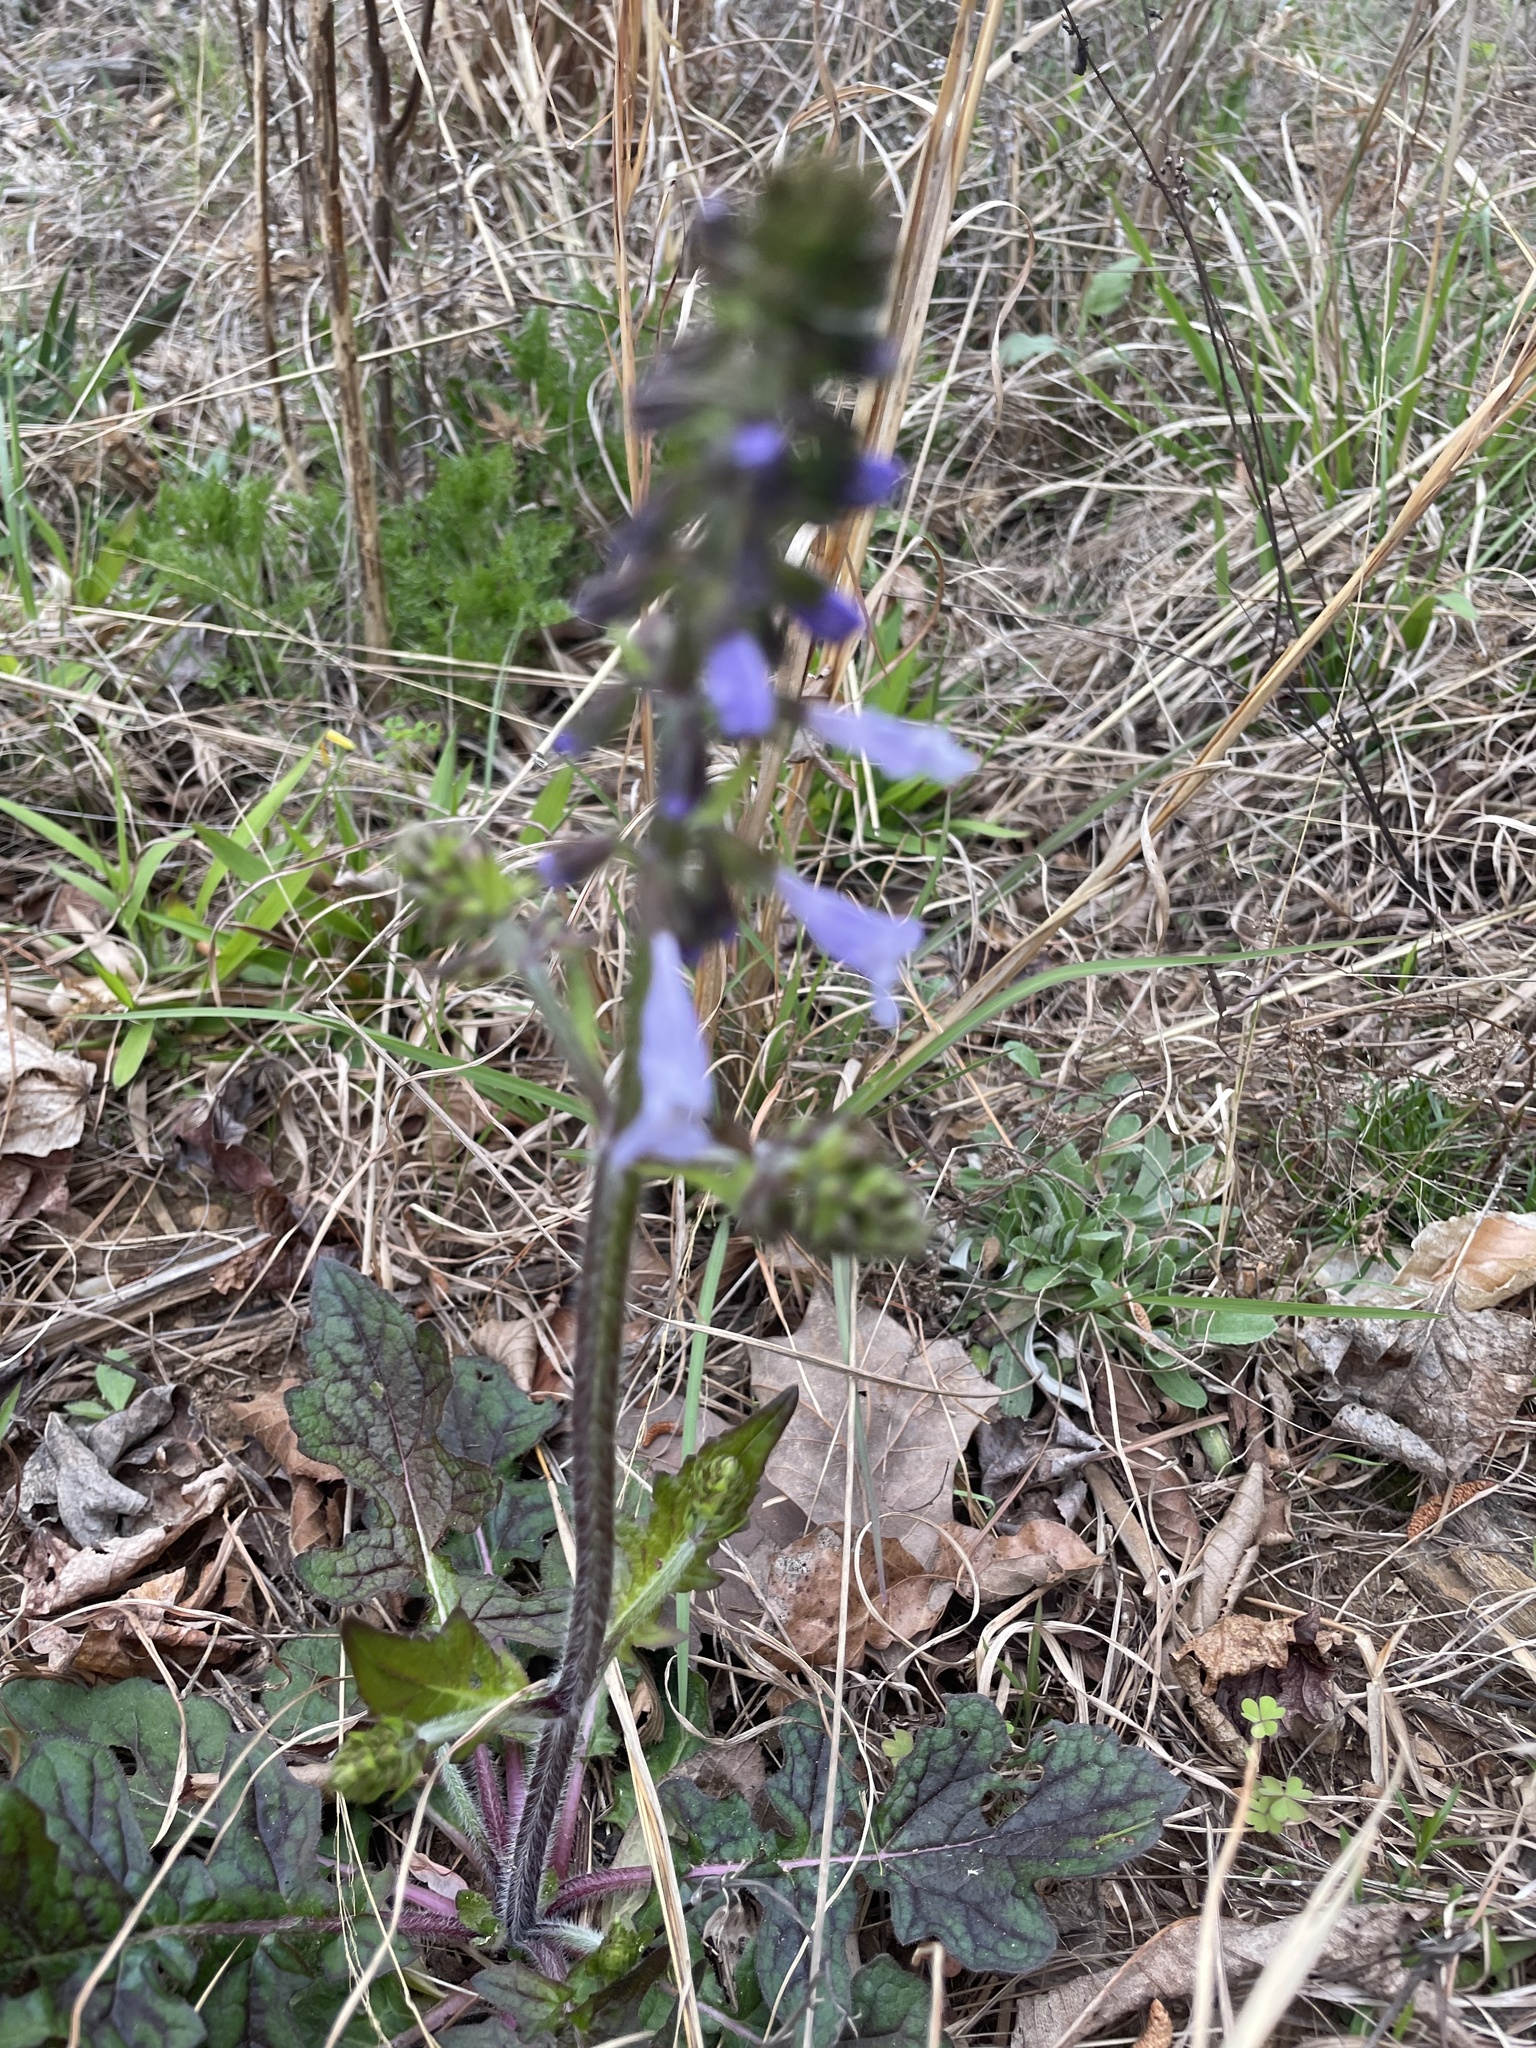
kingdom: Plantae
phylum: Tracheophyta
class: Magnoliopsida
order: Lamiales
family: Lamiaceae
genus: Salvia
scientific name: Salvia lyrata
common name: Cancerweed
